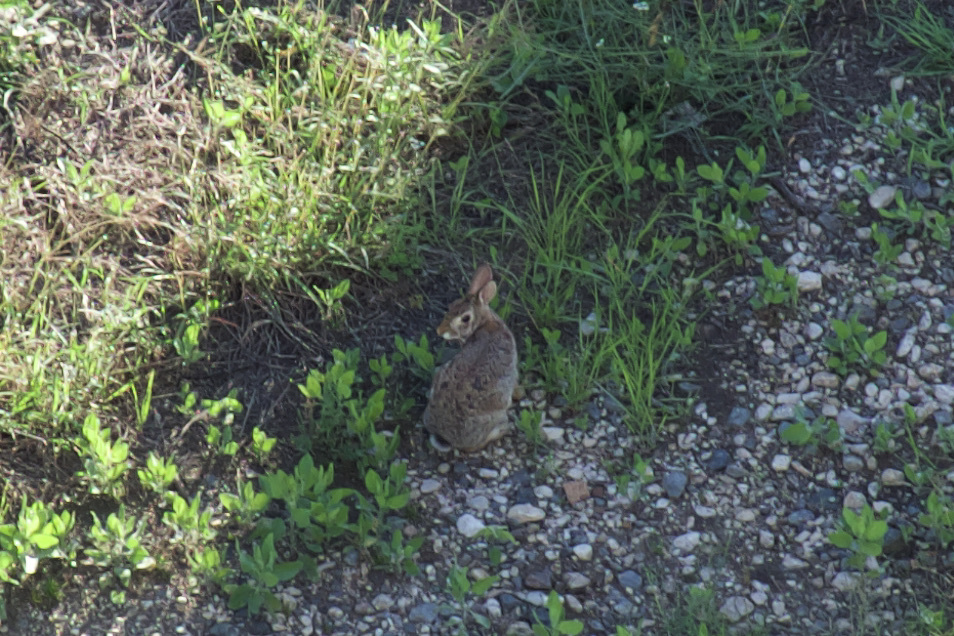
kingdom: Animalia
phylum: Chordata
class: Mammalia
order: Lagomorpha
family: Leporidae
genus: Sylvilagus
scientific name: Sylvilagus floridanus
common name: Eastern cottontail
